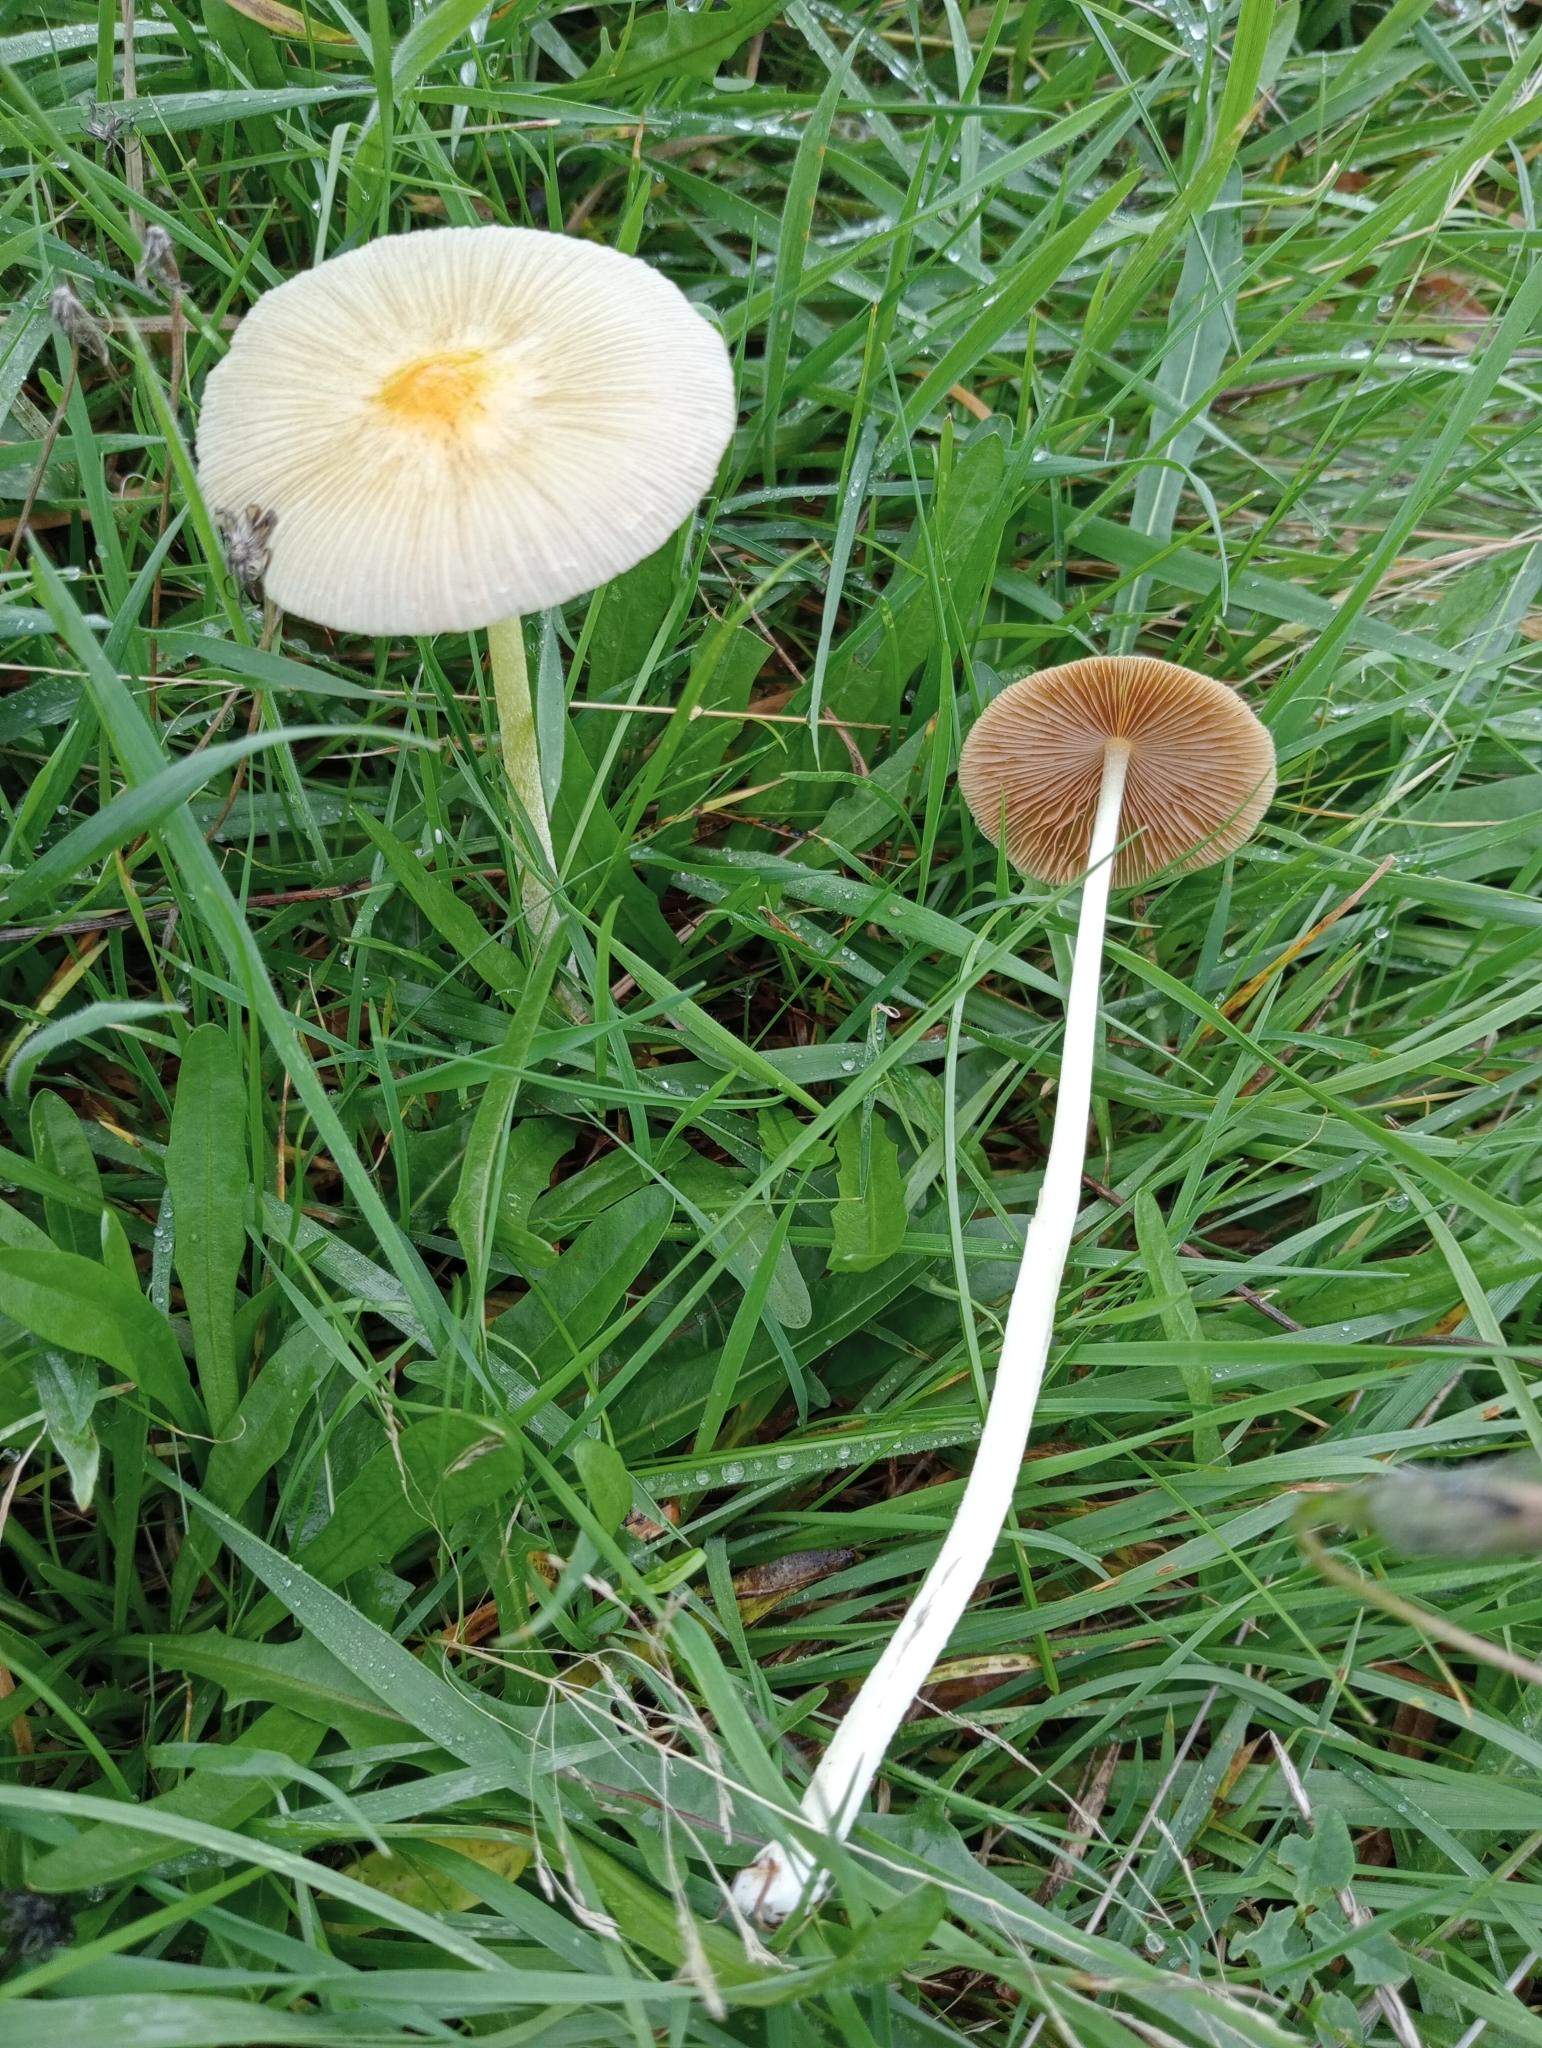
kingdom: Fungi
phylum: Basidiomycota
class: Agaricomycetes
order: Agaricales
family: Bolbitiaceae
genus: Bolbitius
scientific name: Bolbitius titubans
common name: Yellow fieldcap
